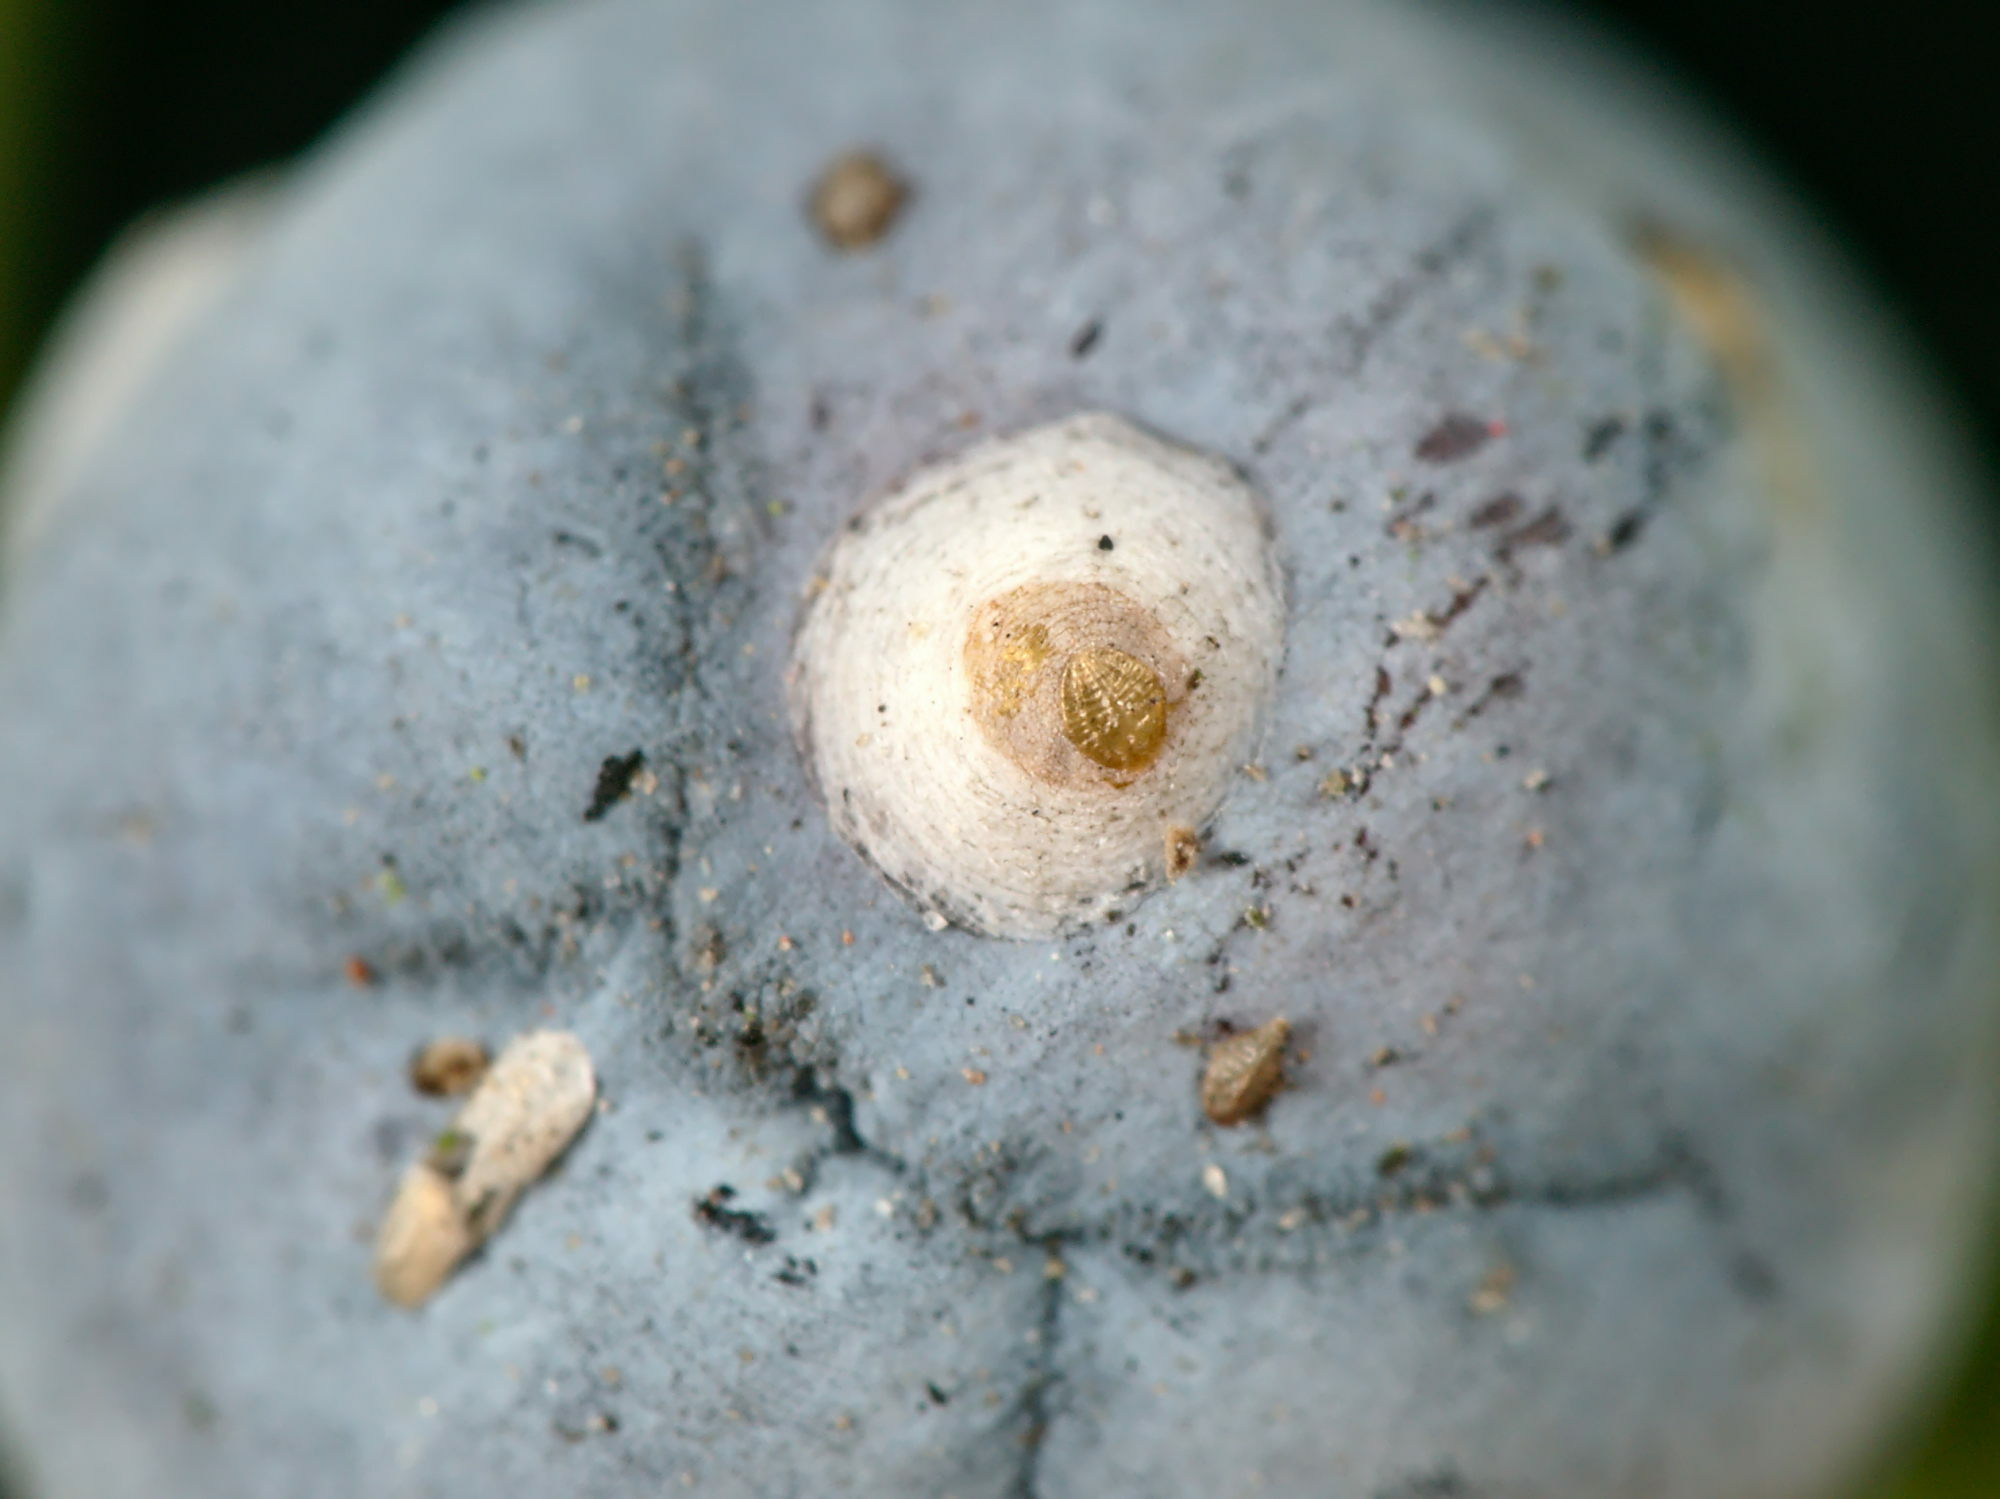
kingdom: Animalia
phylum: Arthropoda
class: Insecta
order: Hemiptera
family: Diaspididae
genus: Carulaspis
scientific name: Carulaspis juniperi
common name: Juniper scale
